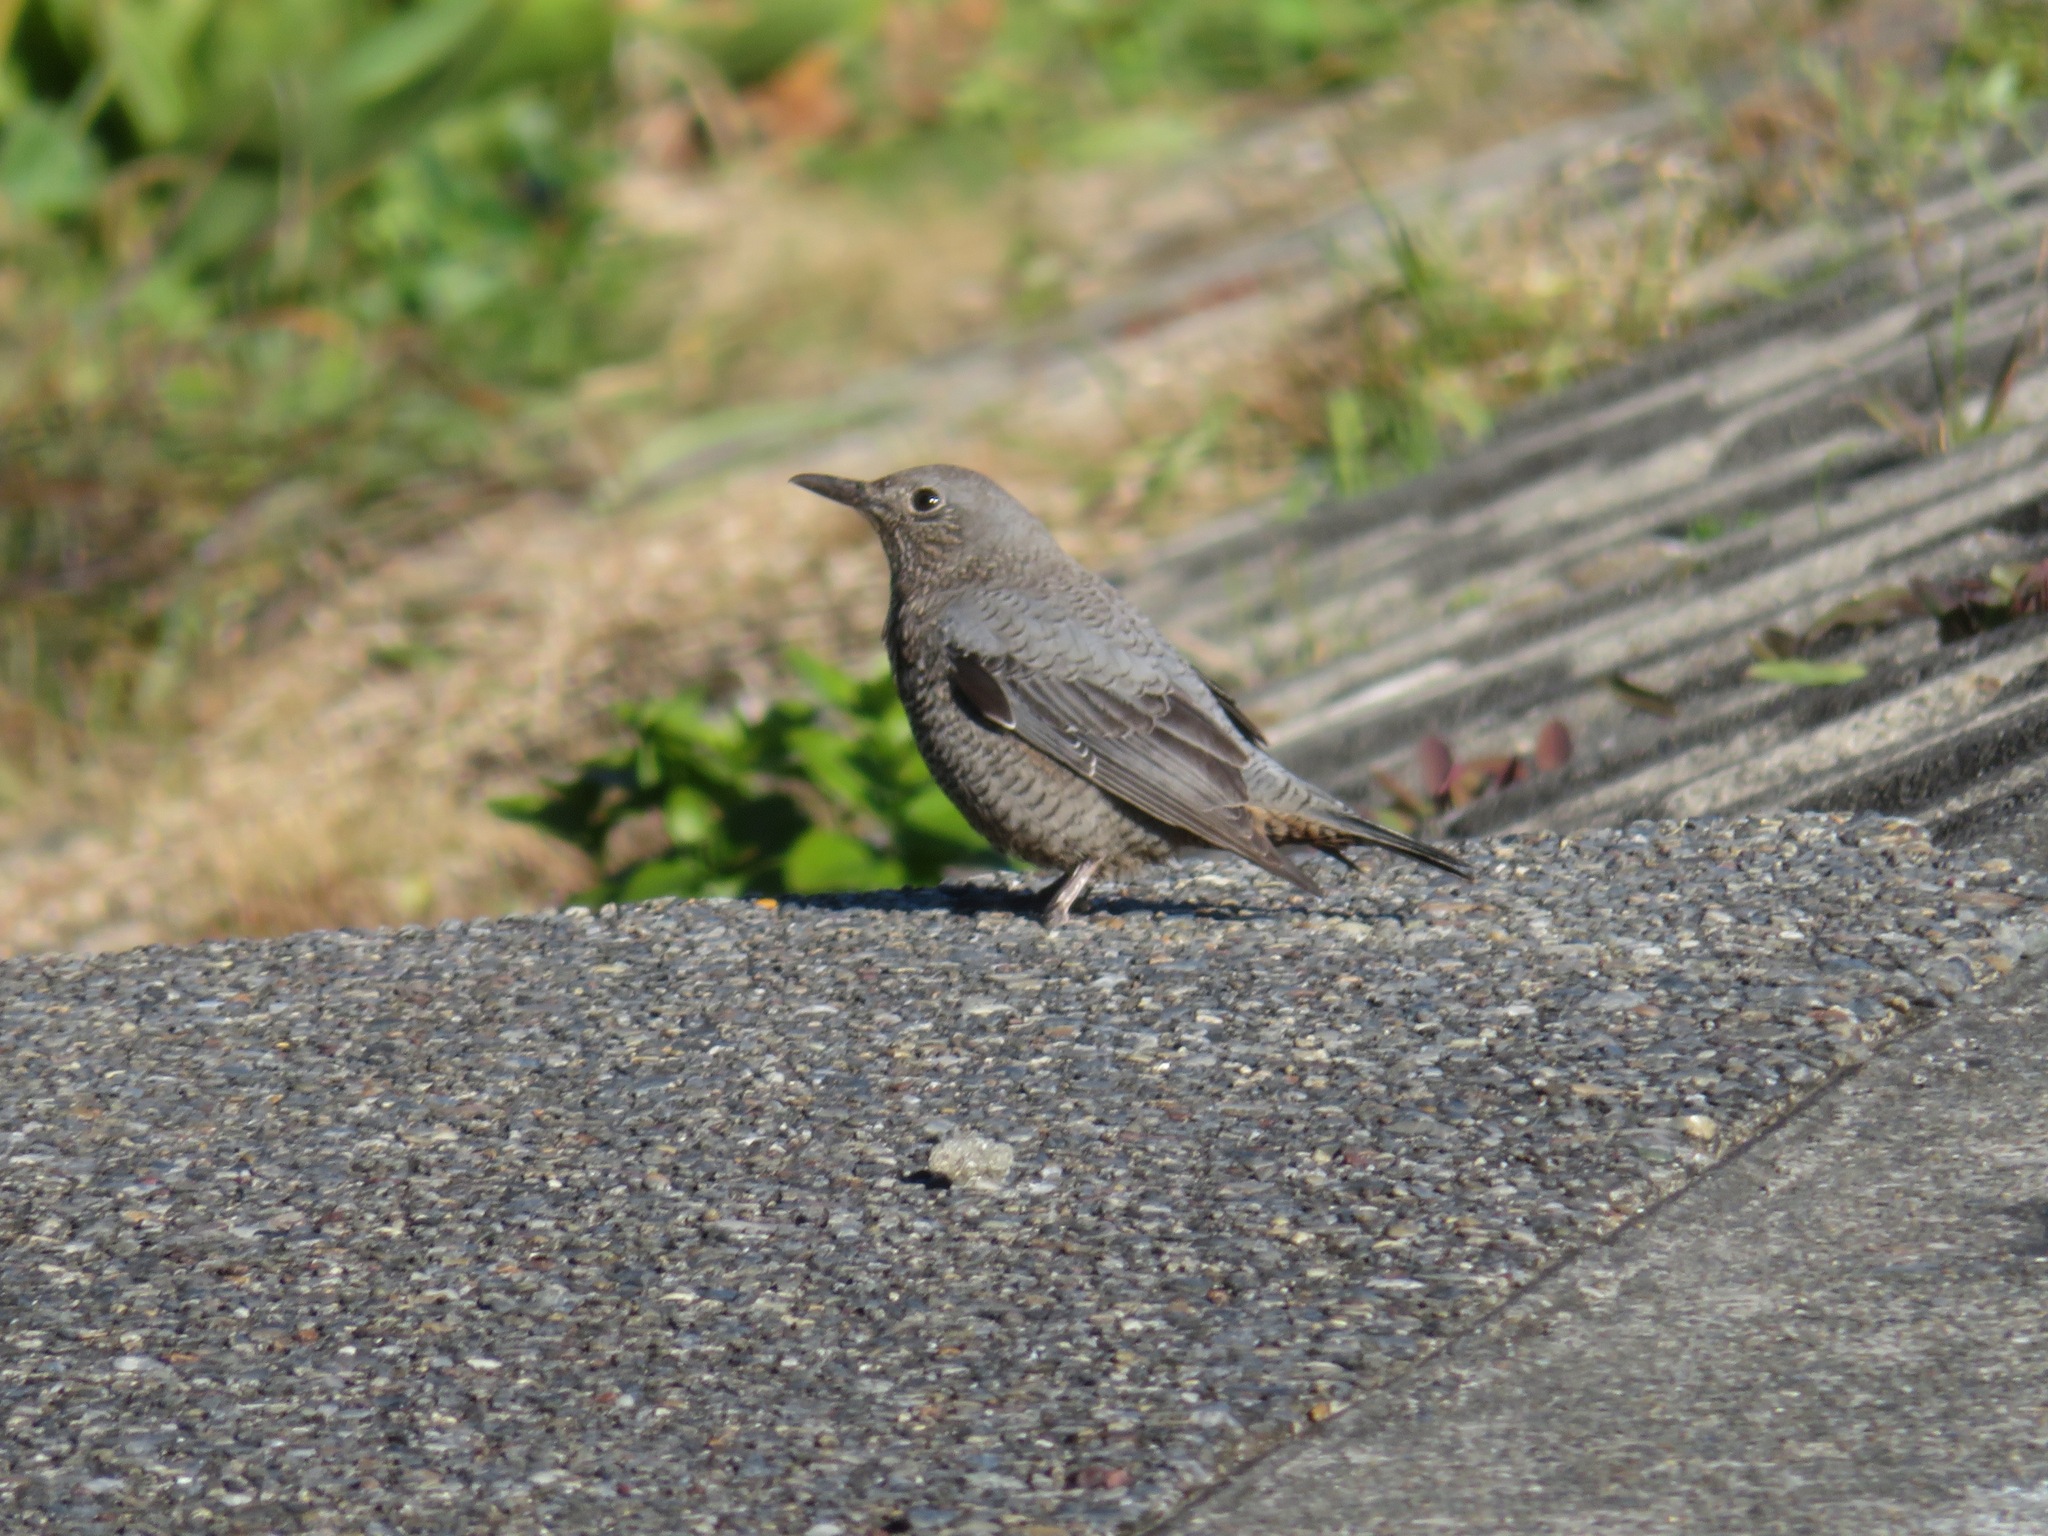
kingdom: Animalia
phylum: Chordata
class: Aves
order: Passeriformes
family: Muscicapidae
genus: Monticola
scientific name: Monticola solitarius
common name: Blue rock thrush
